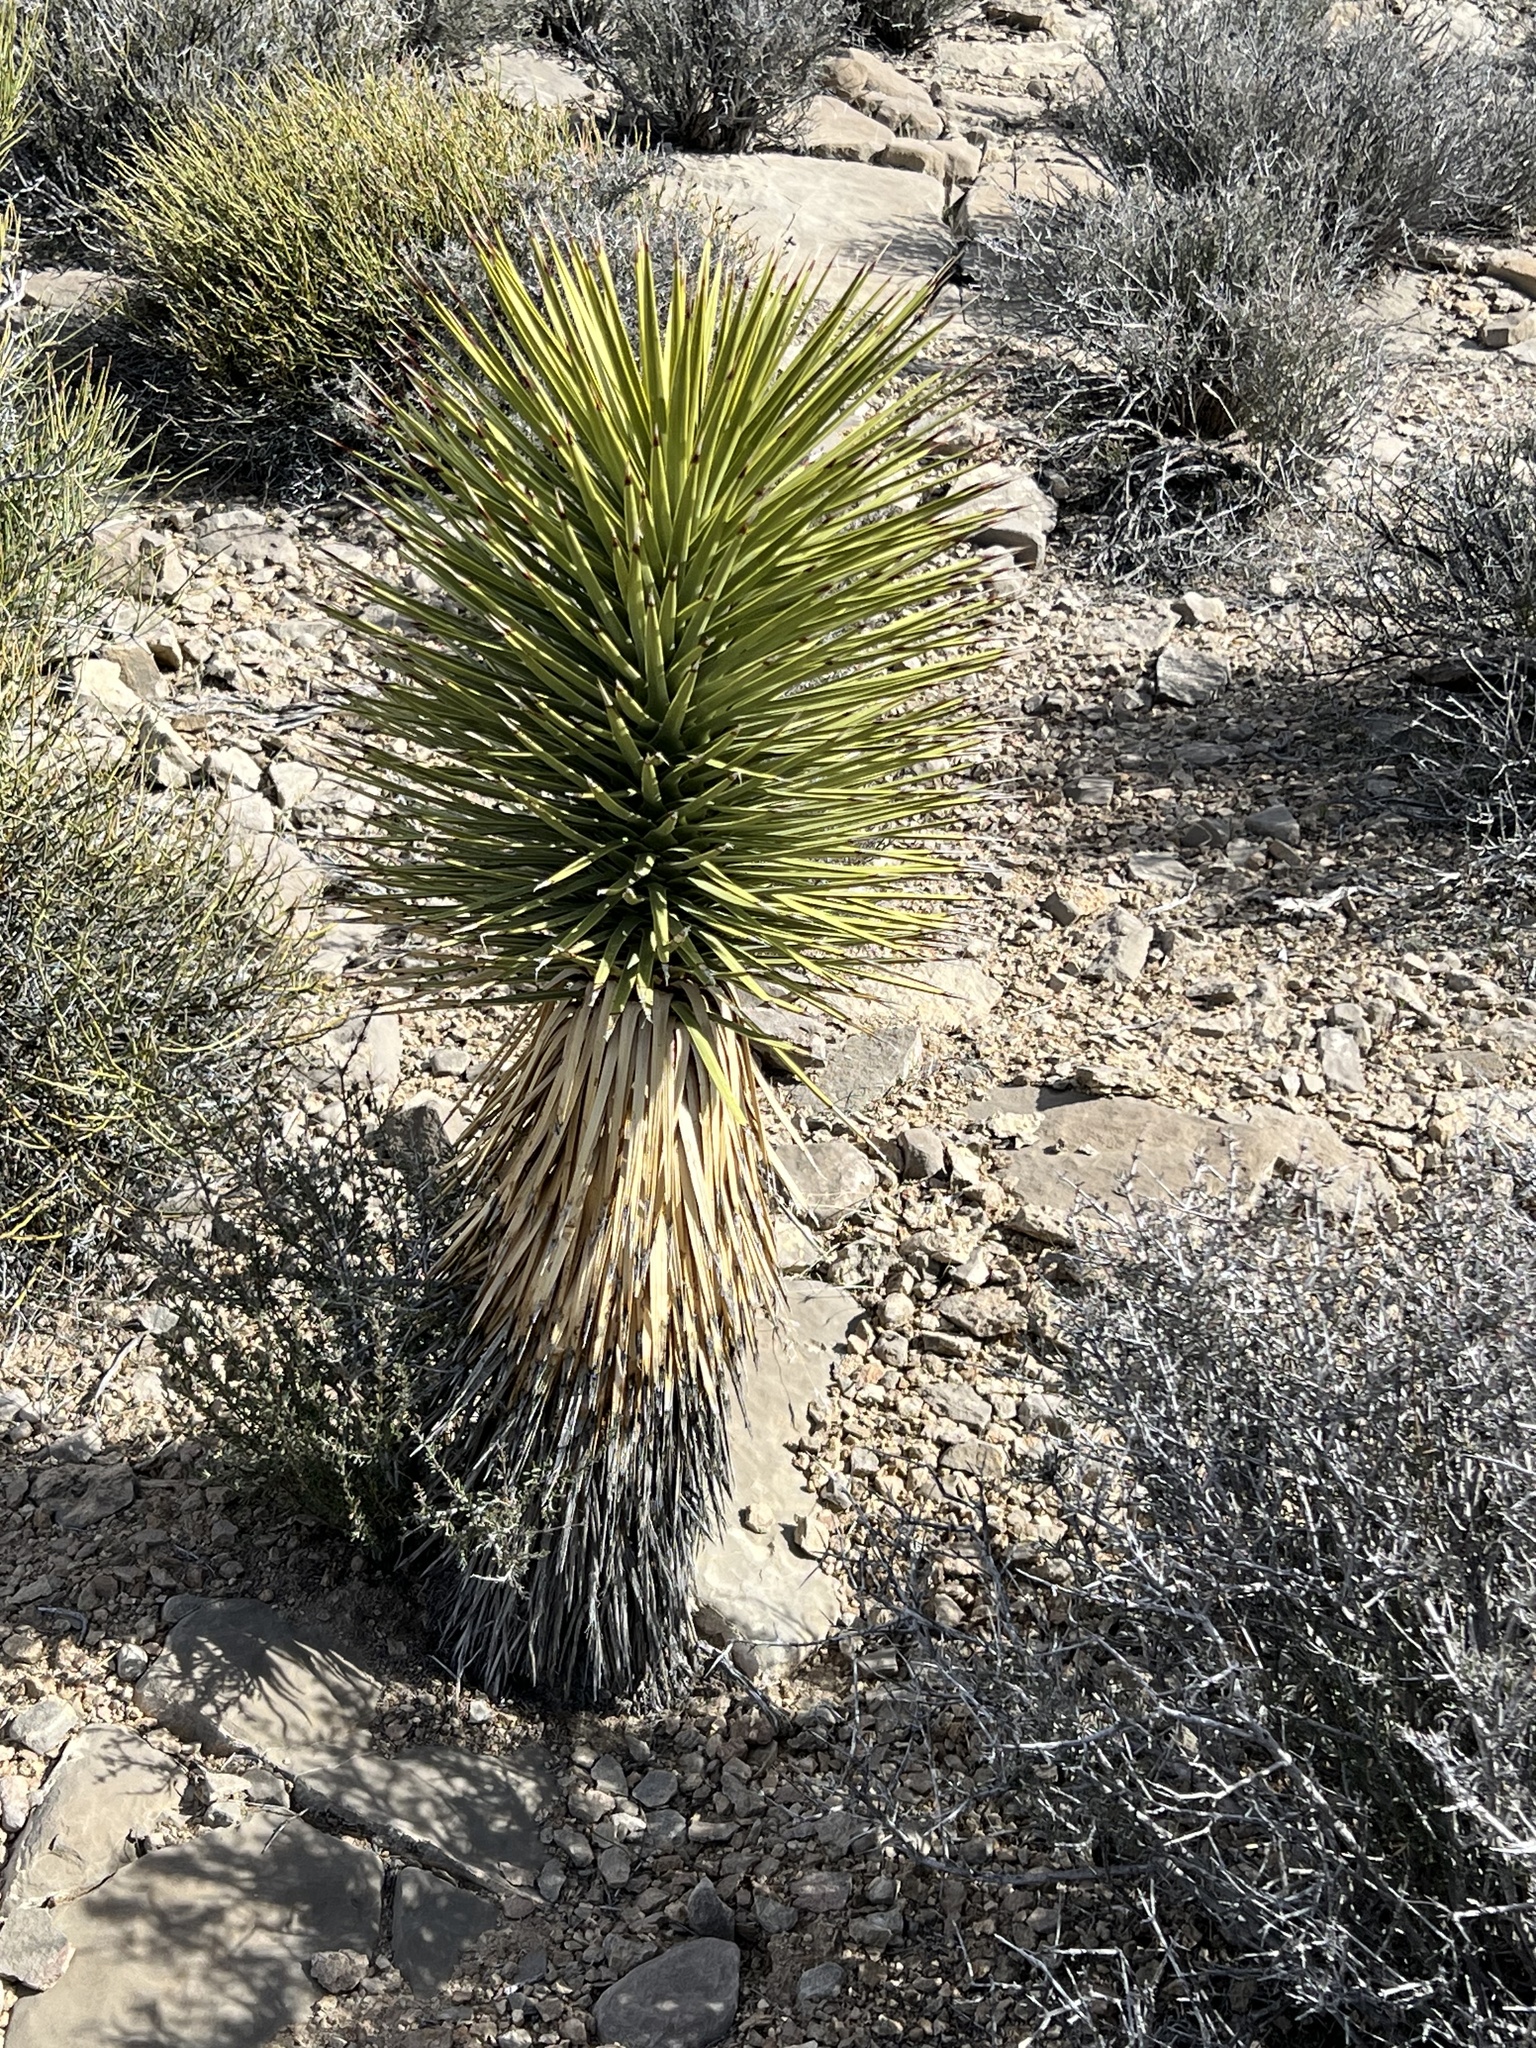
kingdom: Plantae
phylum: Tracheophyta
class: Liliopsida
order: Asparagales
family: Asparagaceae
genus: Yucca
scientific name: Yucca brevifolia
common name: Joshua tree
